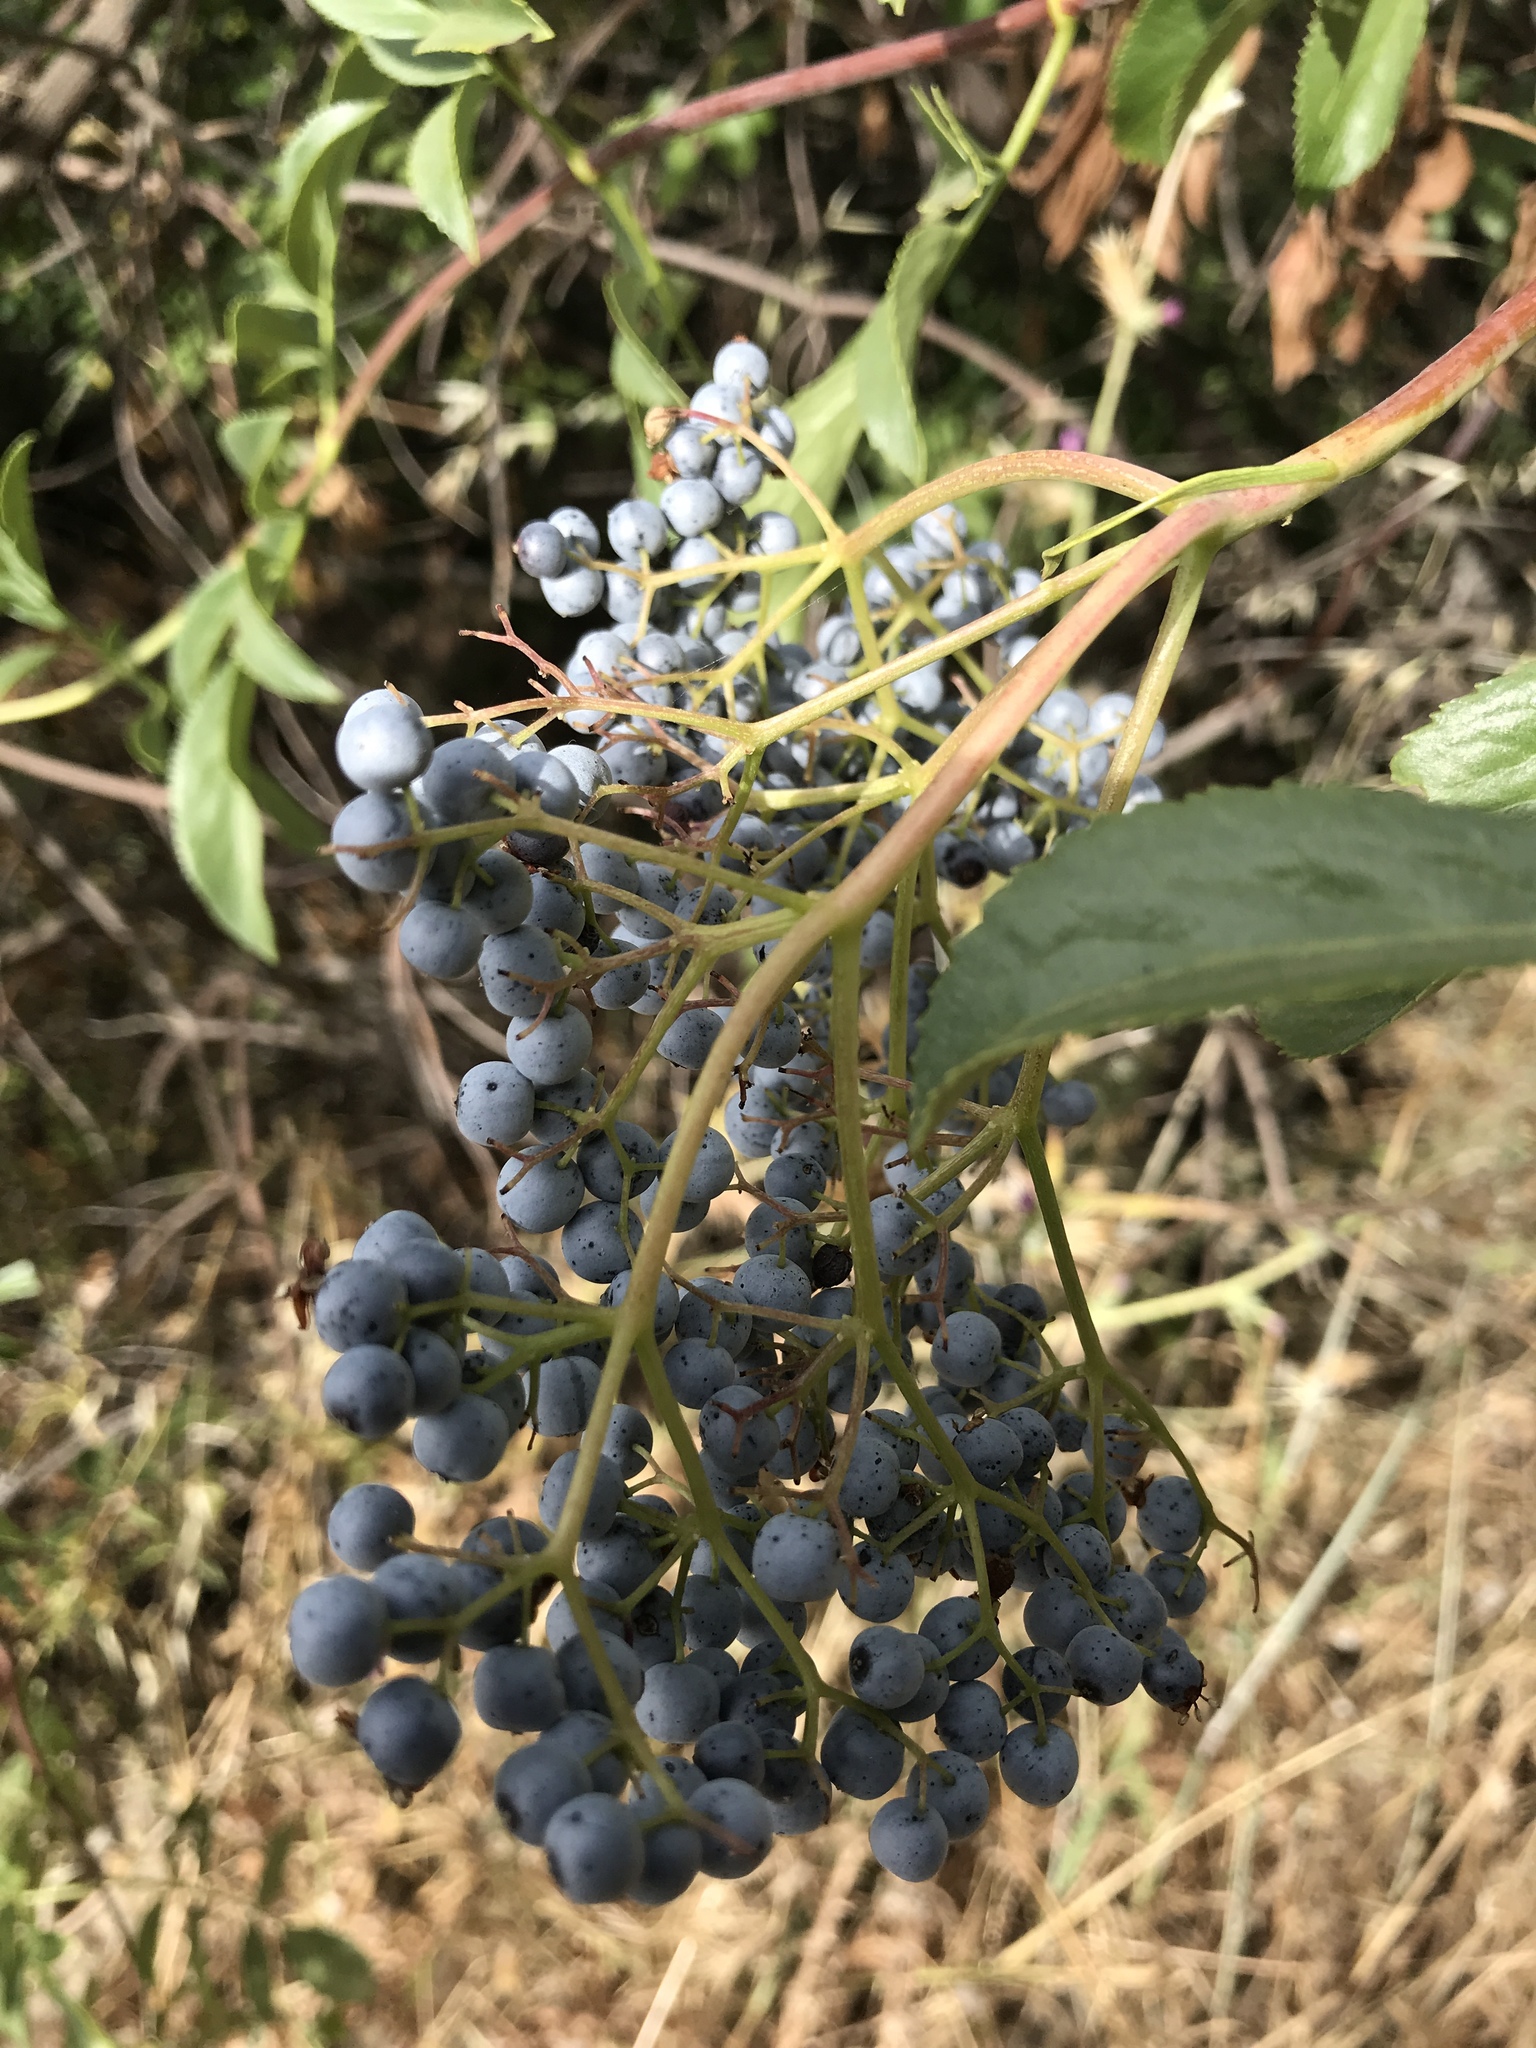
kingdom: Plantae
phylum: Tracheophyta
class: Magnoliopsida
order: Dipsacales
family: Viburnaceae
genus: Sambucus
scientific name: Sambucus cerulea
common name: Blue elder
